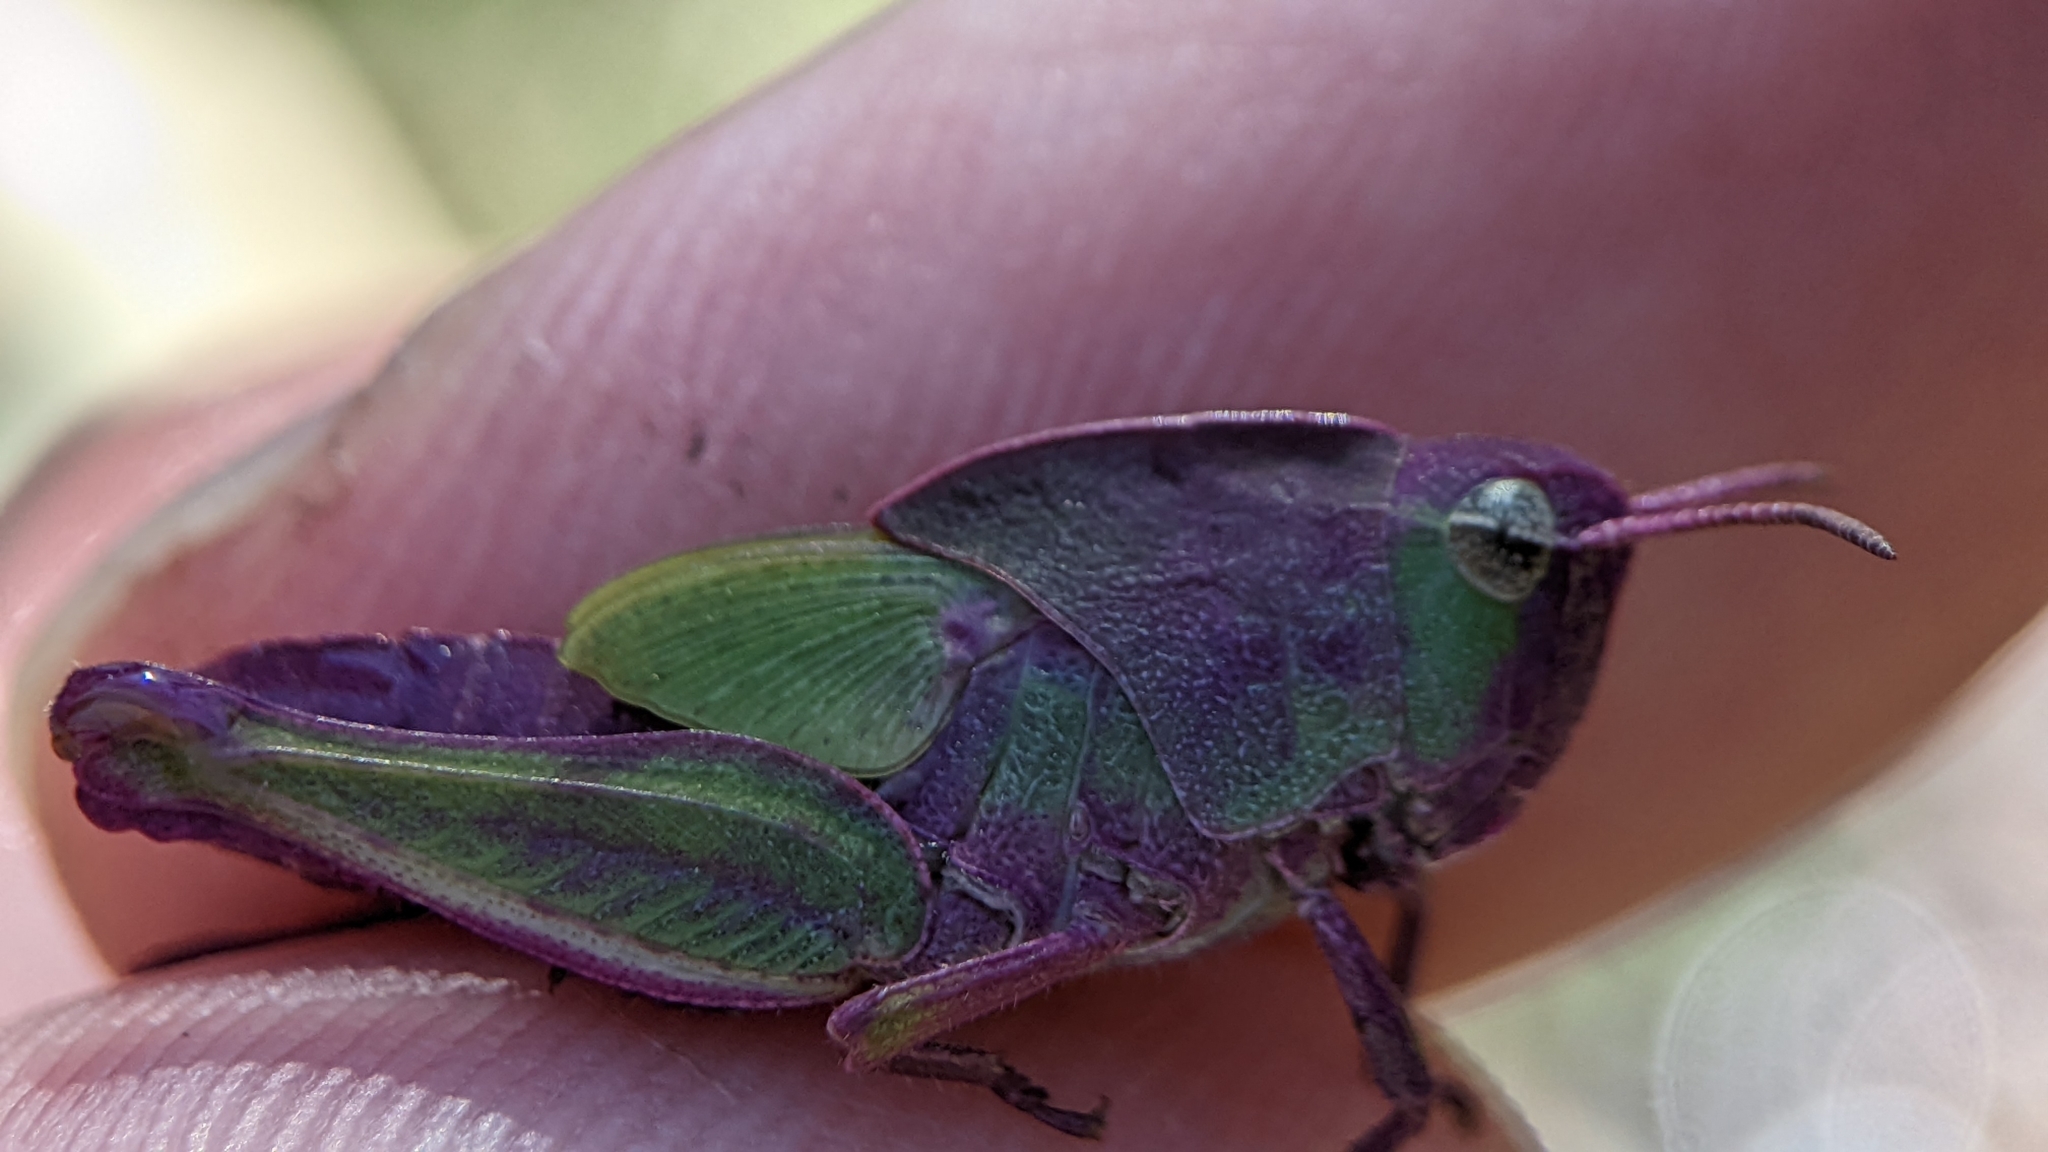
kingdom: Animalia
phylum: Arthropoda
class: Insecta
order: Orthoptera
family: Acrididae
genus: Chortophaga
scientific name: Chortophaga viridifasciata
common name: Green-striped grasshopper
